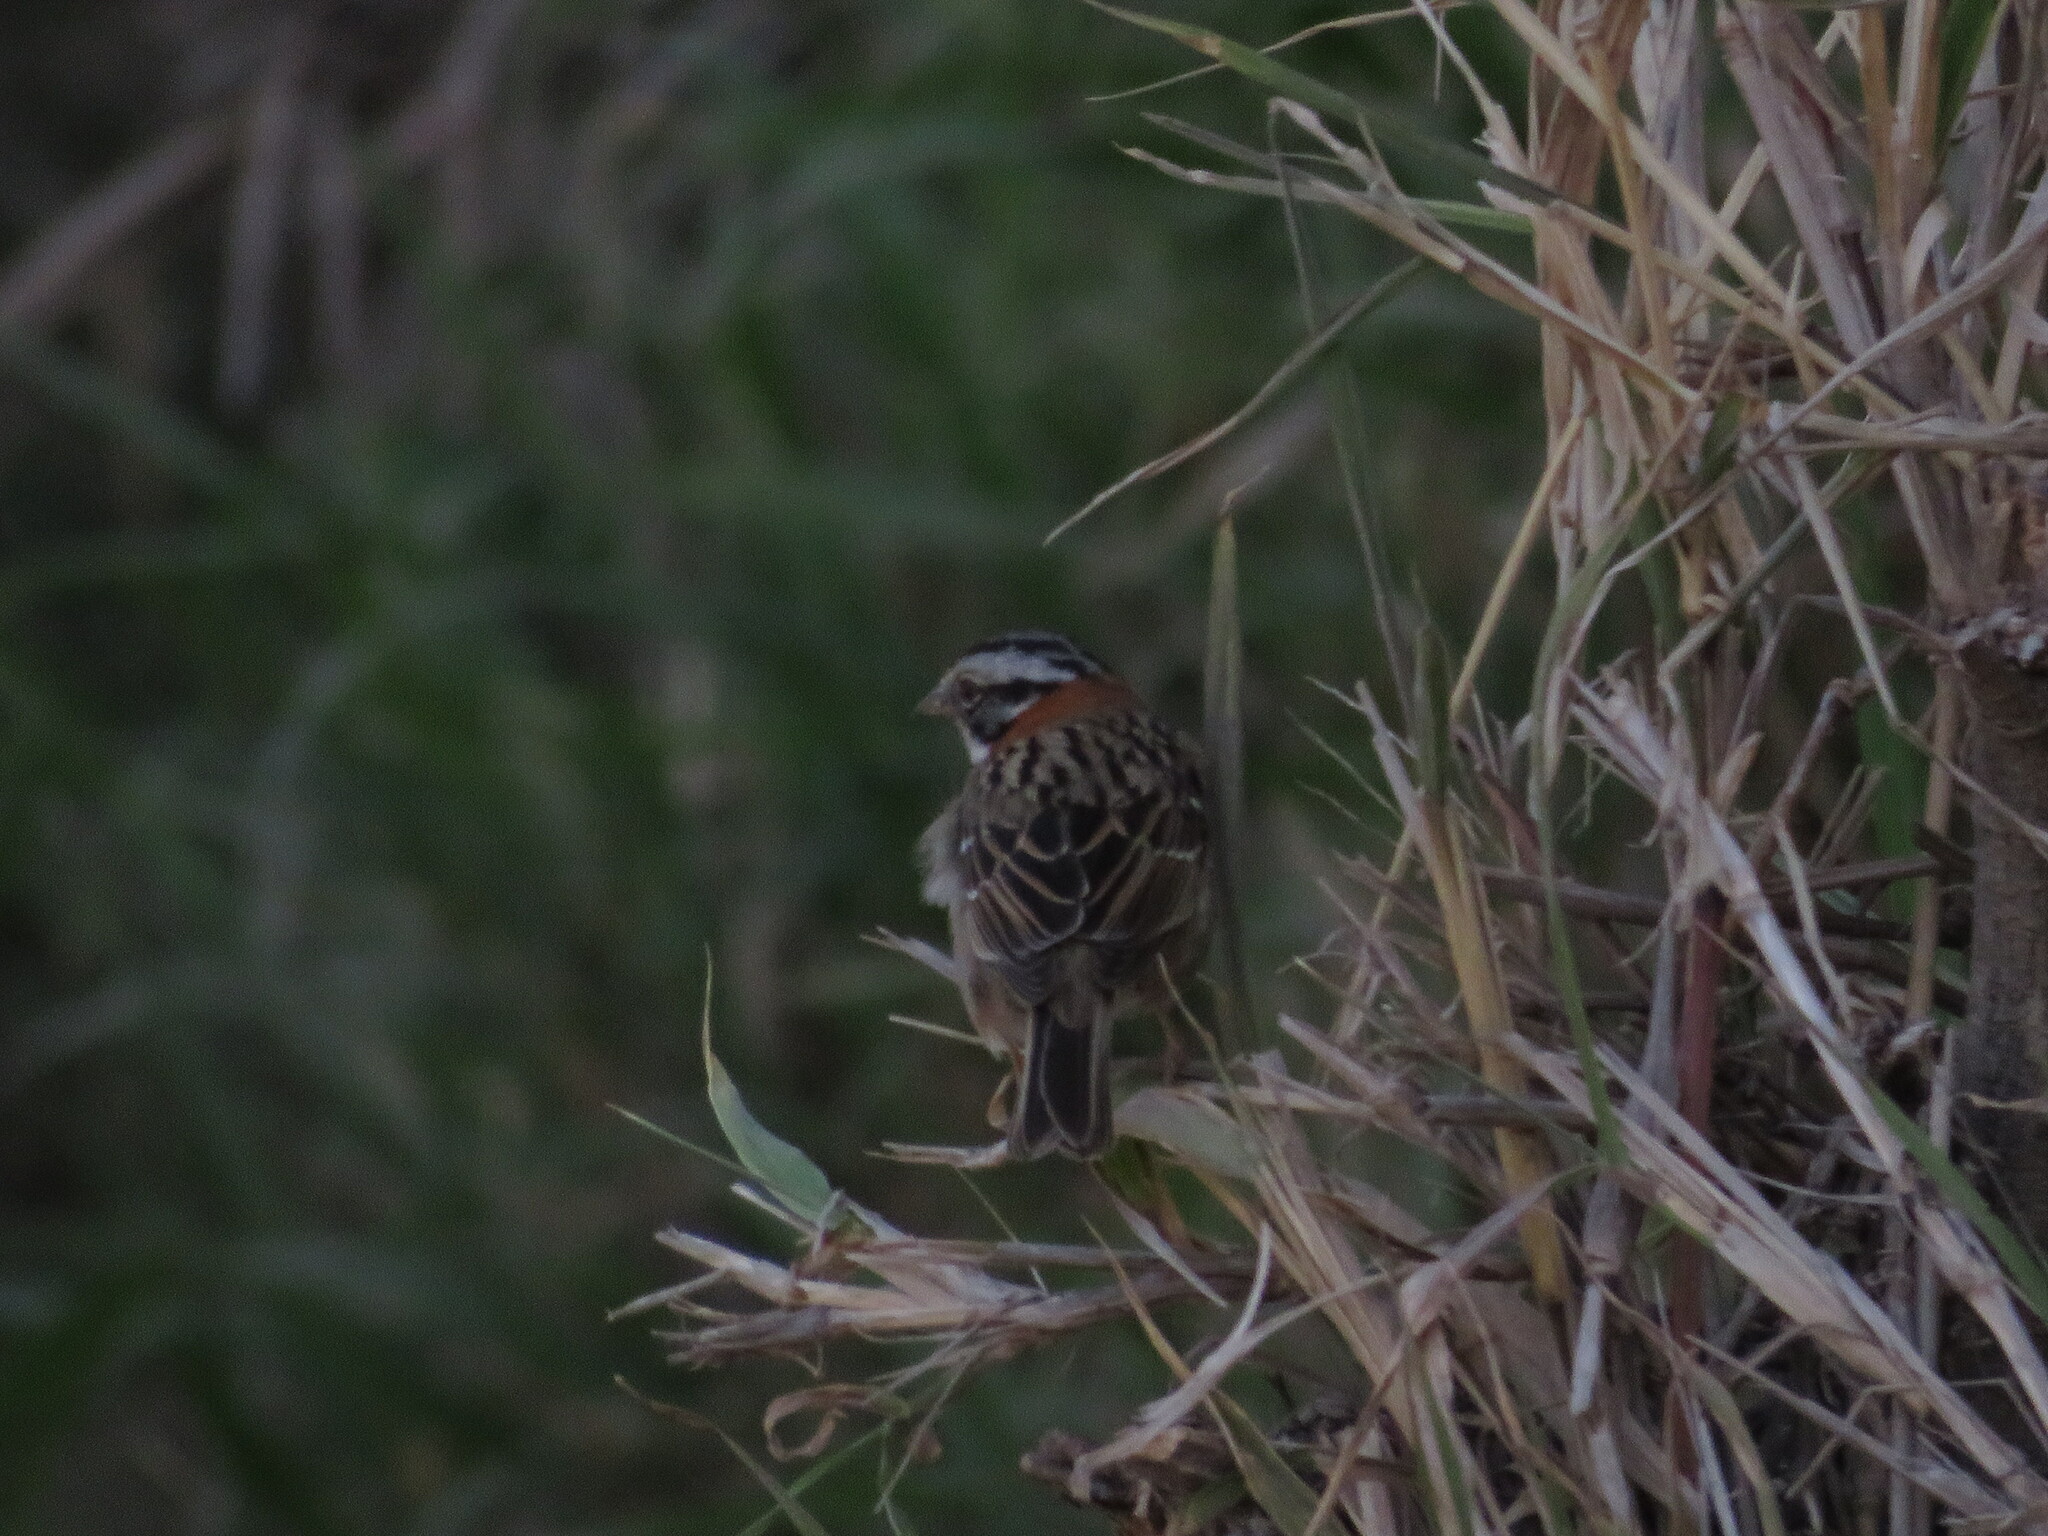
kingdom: Animalia
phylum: Chordata
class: Aves
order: Passeriformes
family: Passerellidae
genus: Zonotrichia
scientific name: Zonotrichia capensis
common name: Rufous-collared sparrow
